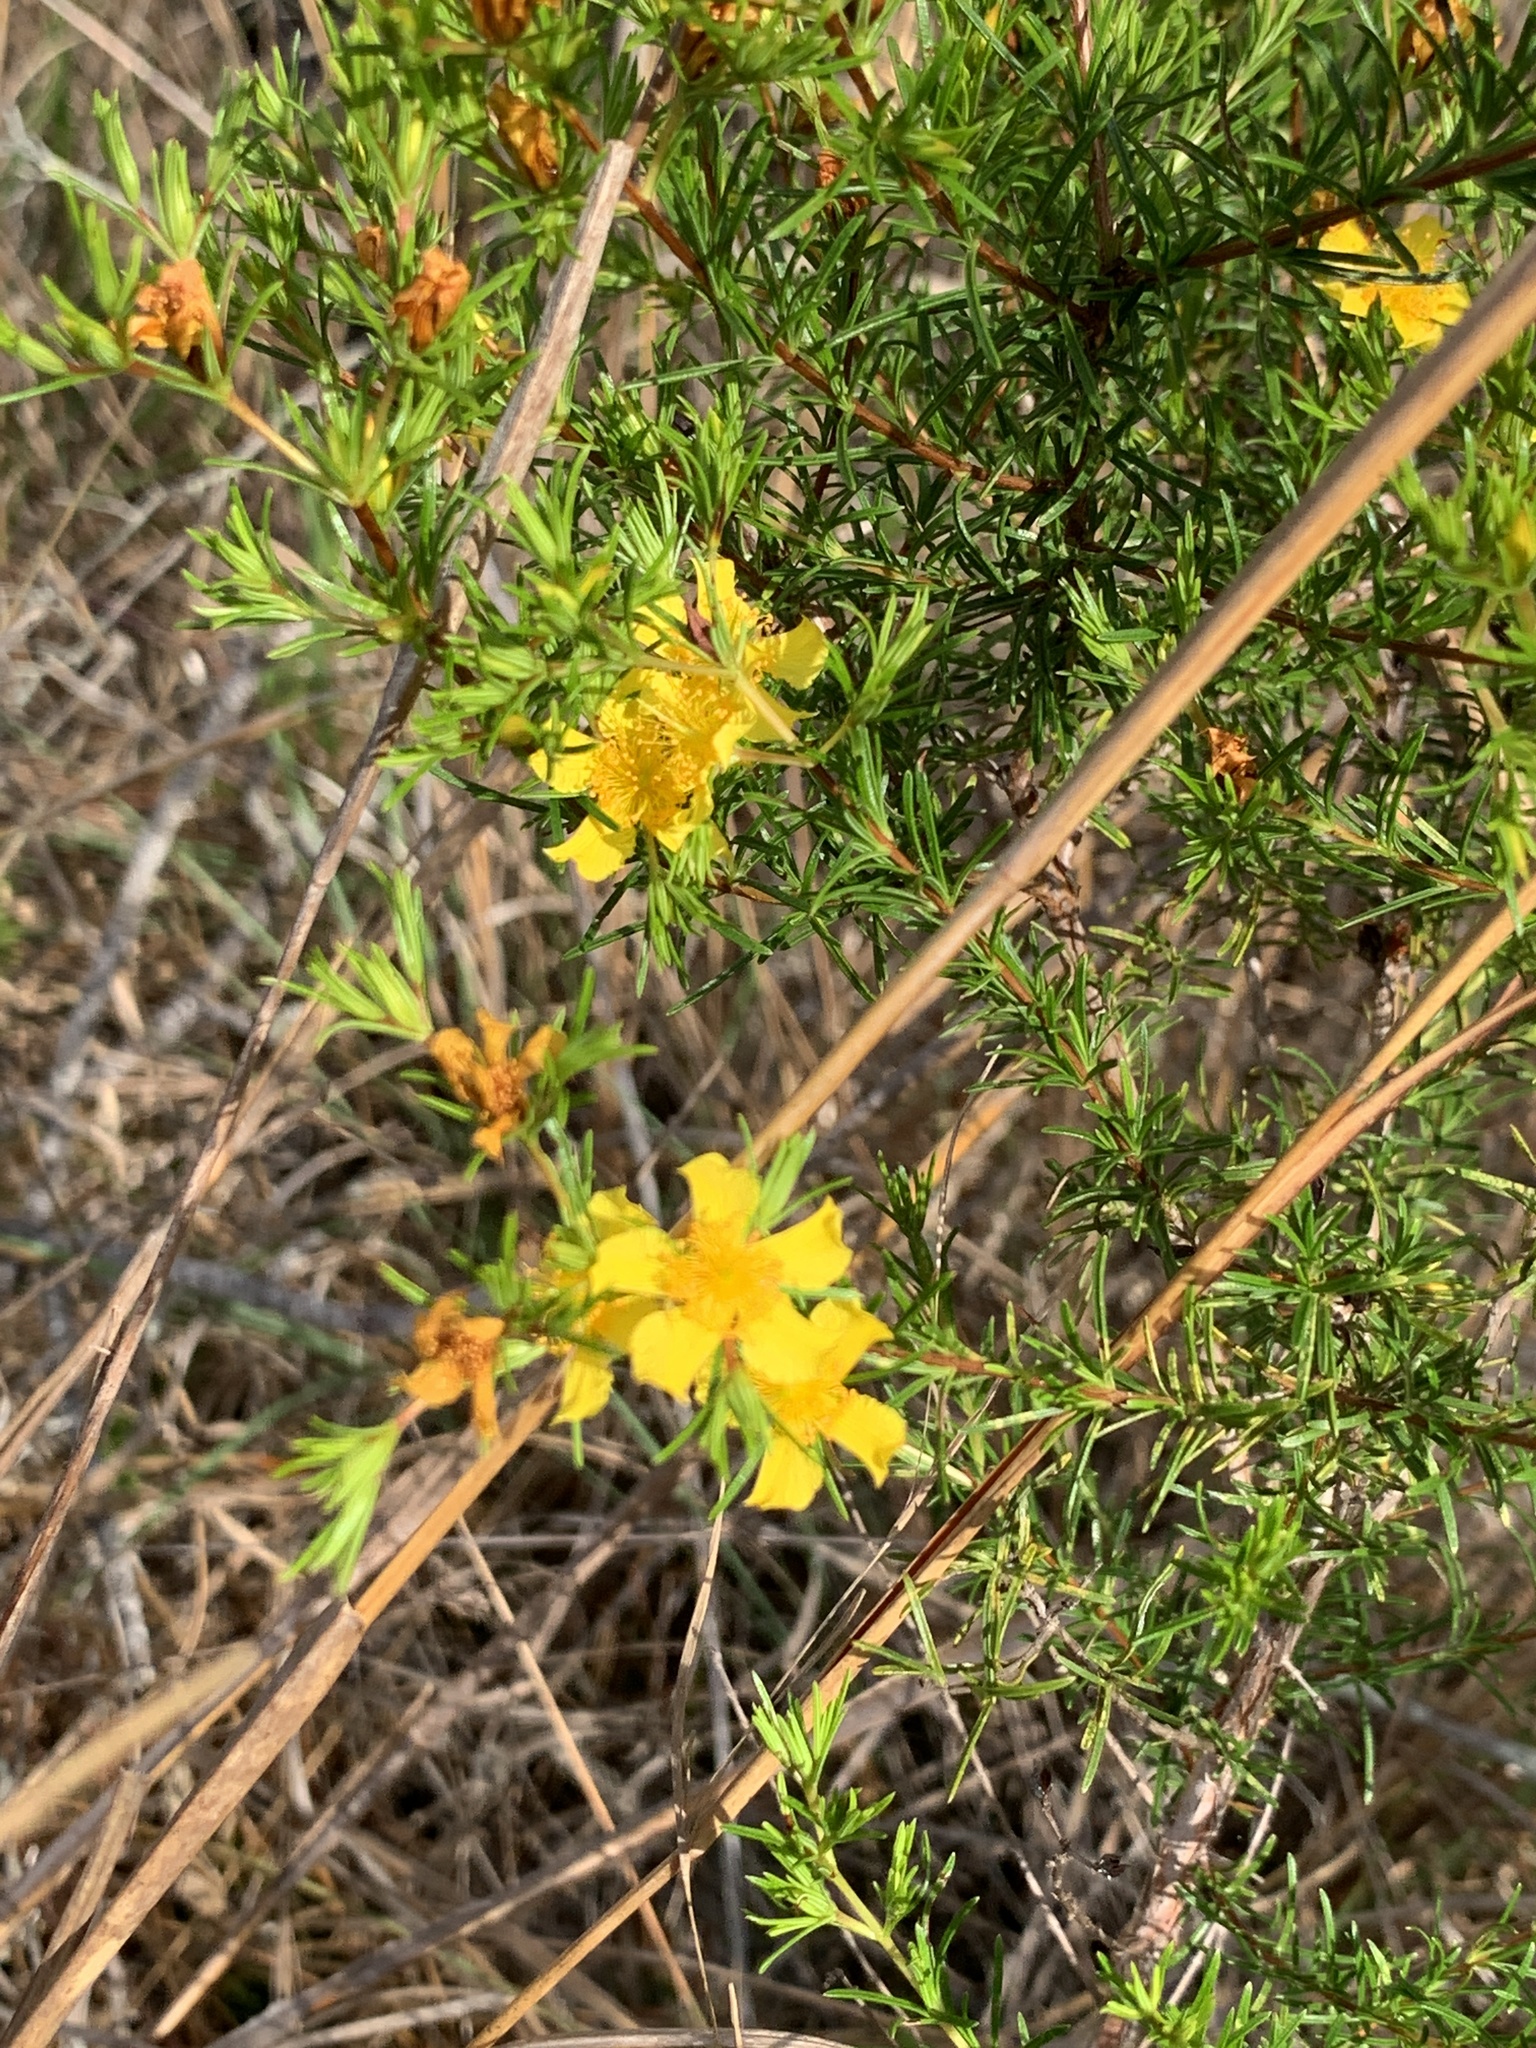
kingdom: Plantae
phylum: Tracheophyta
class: Magnoliopsida
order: Malpighiales
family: Hypericaceae
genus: Hypericum
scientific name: Hypericum fasciculatum
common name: Peelbark st. john's wort
